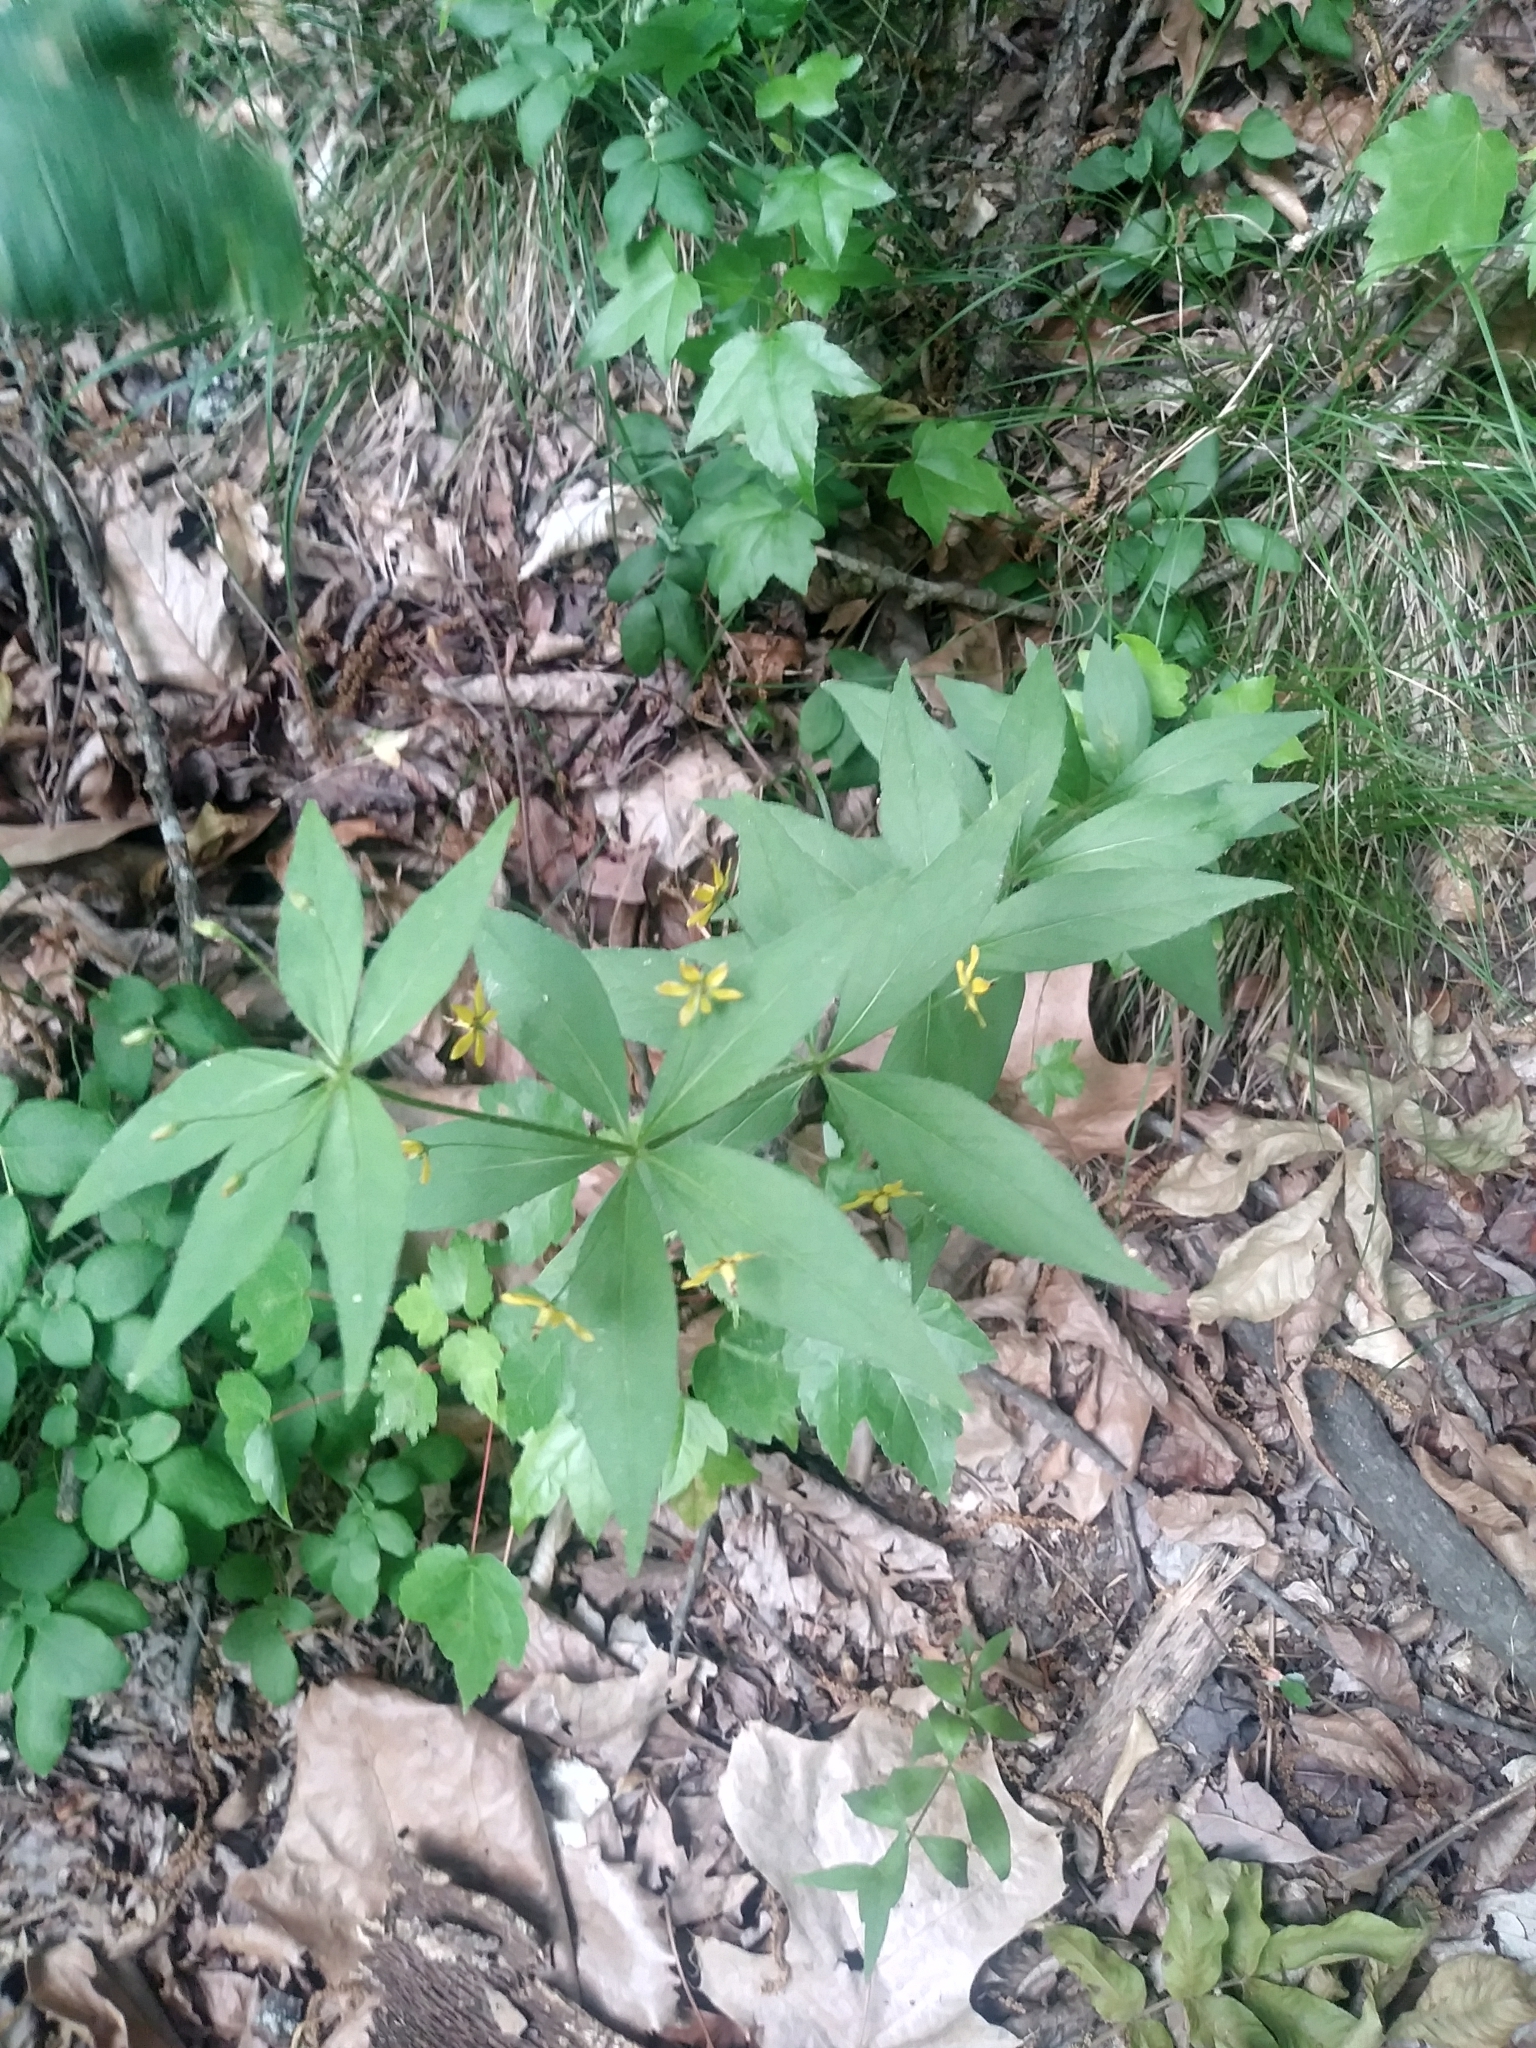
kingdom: Plantae
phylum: Tracheophyta
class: Magnoliopsida
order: Ericales
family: Primulaceae
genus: Lysimachia
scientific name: Lysimachia quadrifolia
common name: Whorled loosestrife
